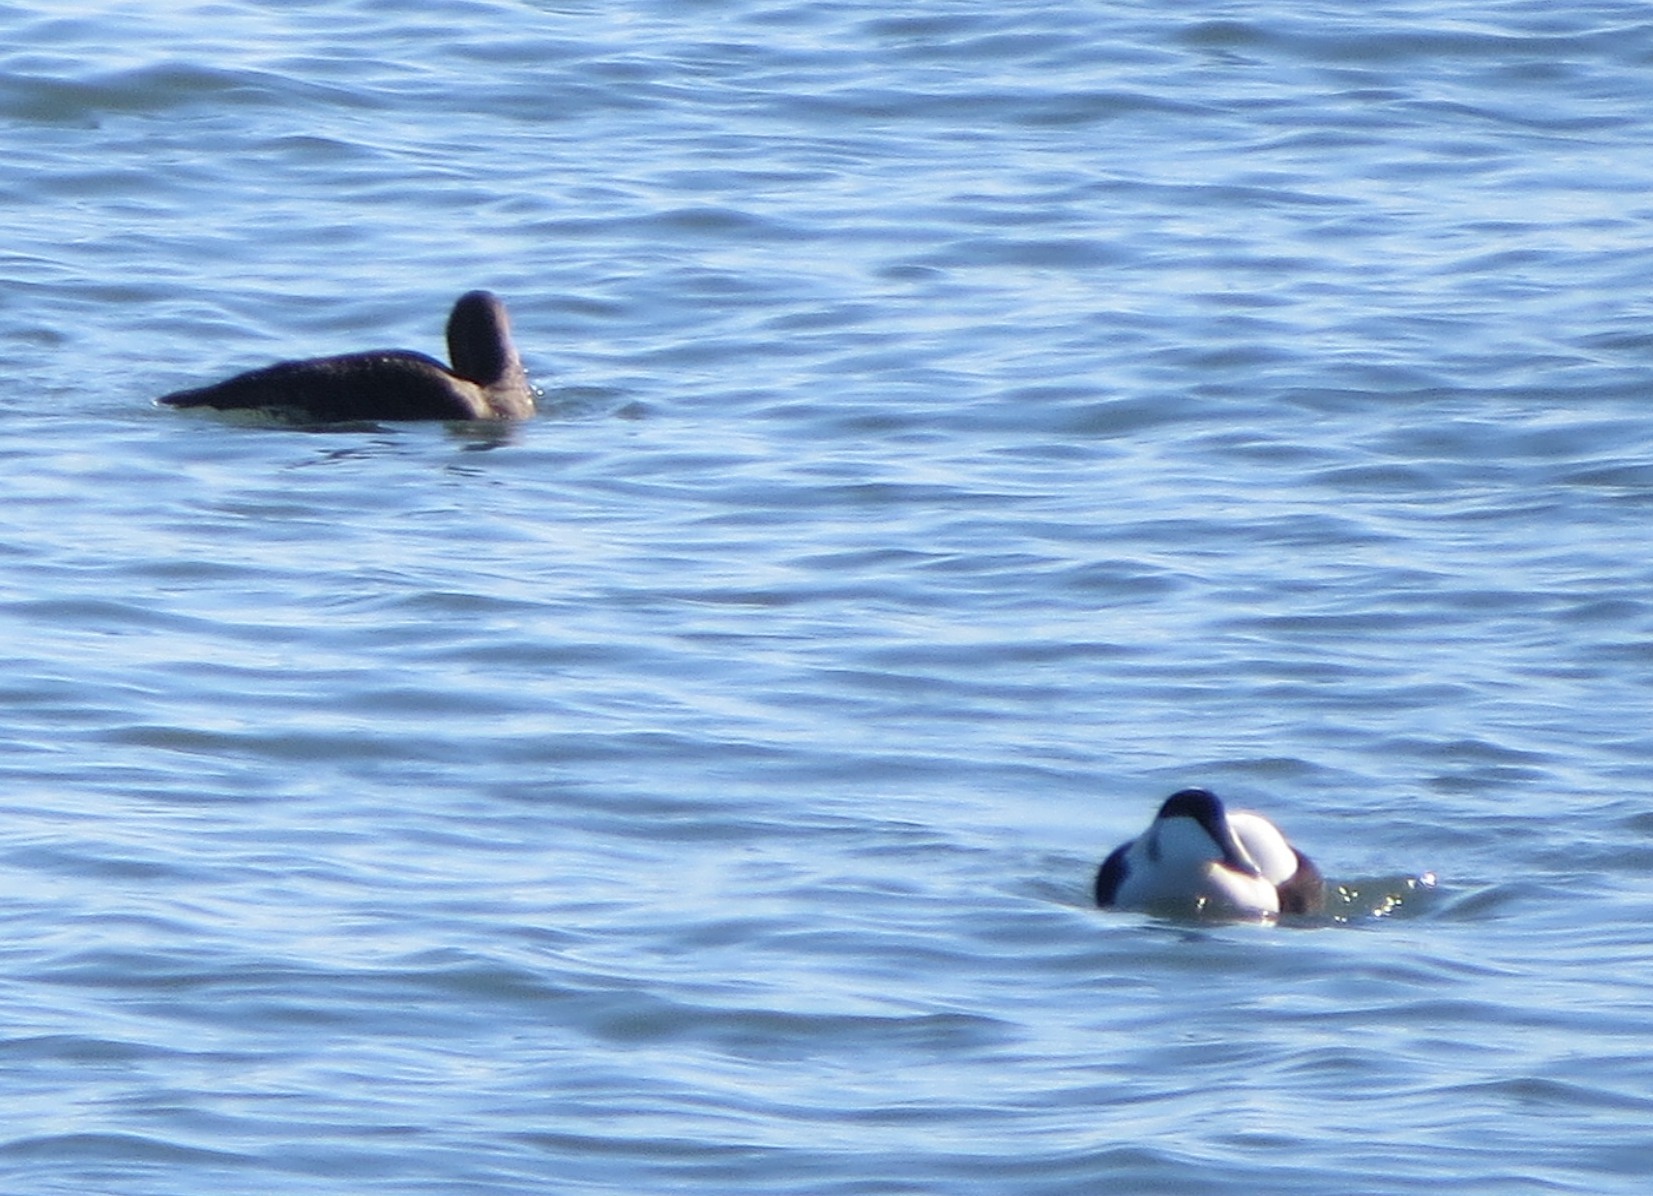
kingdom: Animalia
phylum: Chordata
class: Aves
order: Anseriformes
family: Anatidae
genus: Somateria
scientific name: Somateria mollissima
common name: Common eider
